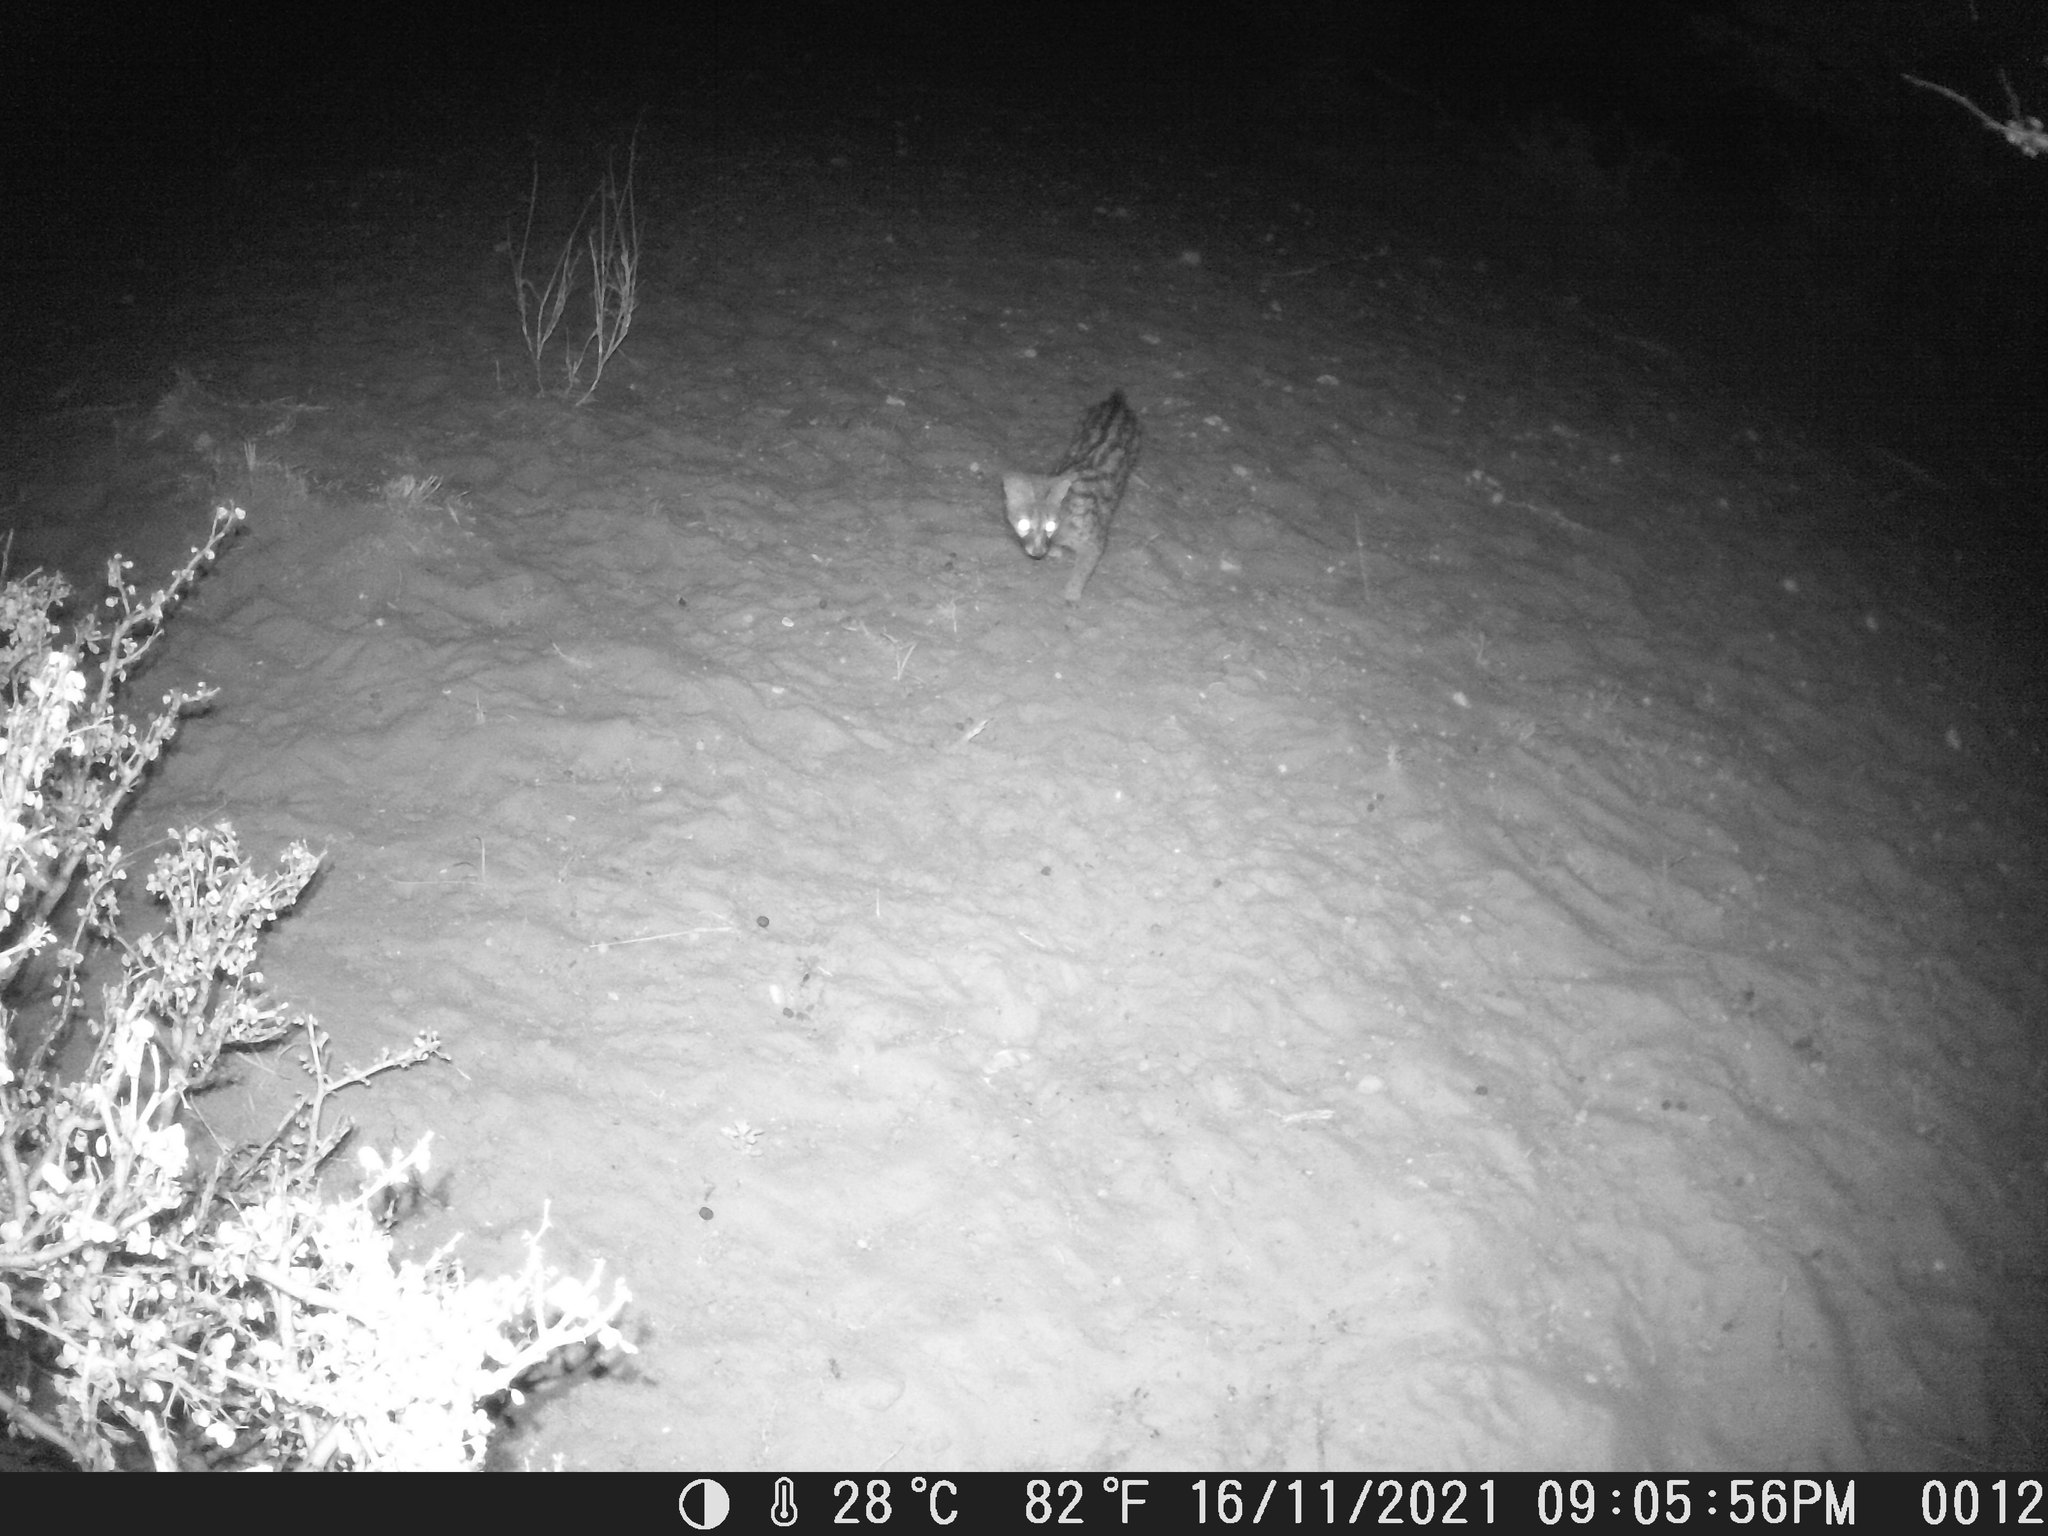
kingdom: Animalia
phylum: Chordata
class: Mammalia
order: Carnivora
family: Viverridae
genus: Genetta
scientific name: Genetta genetta
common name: Common genet
